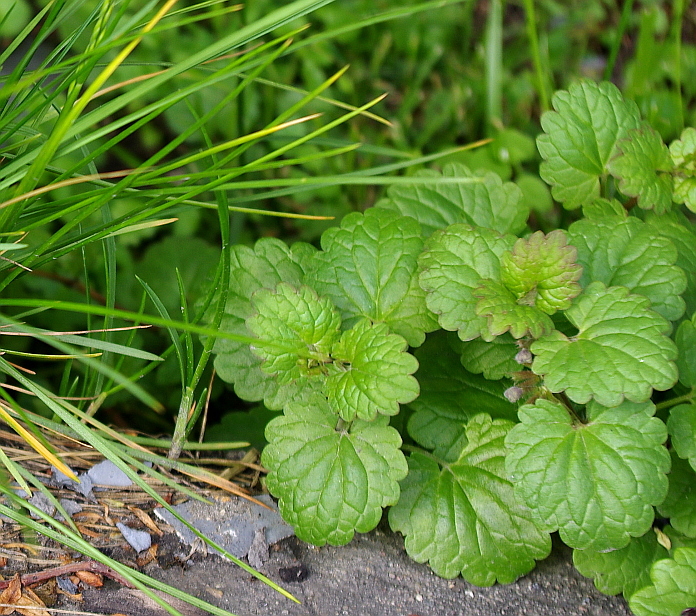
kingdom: Plantae
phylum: Tracheophyta
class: Magnoliopsida
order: Lamiales
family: Lamiaceae
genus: Glechoma
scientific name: Glechoma hederacea
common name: Ground ivy
